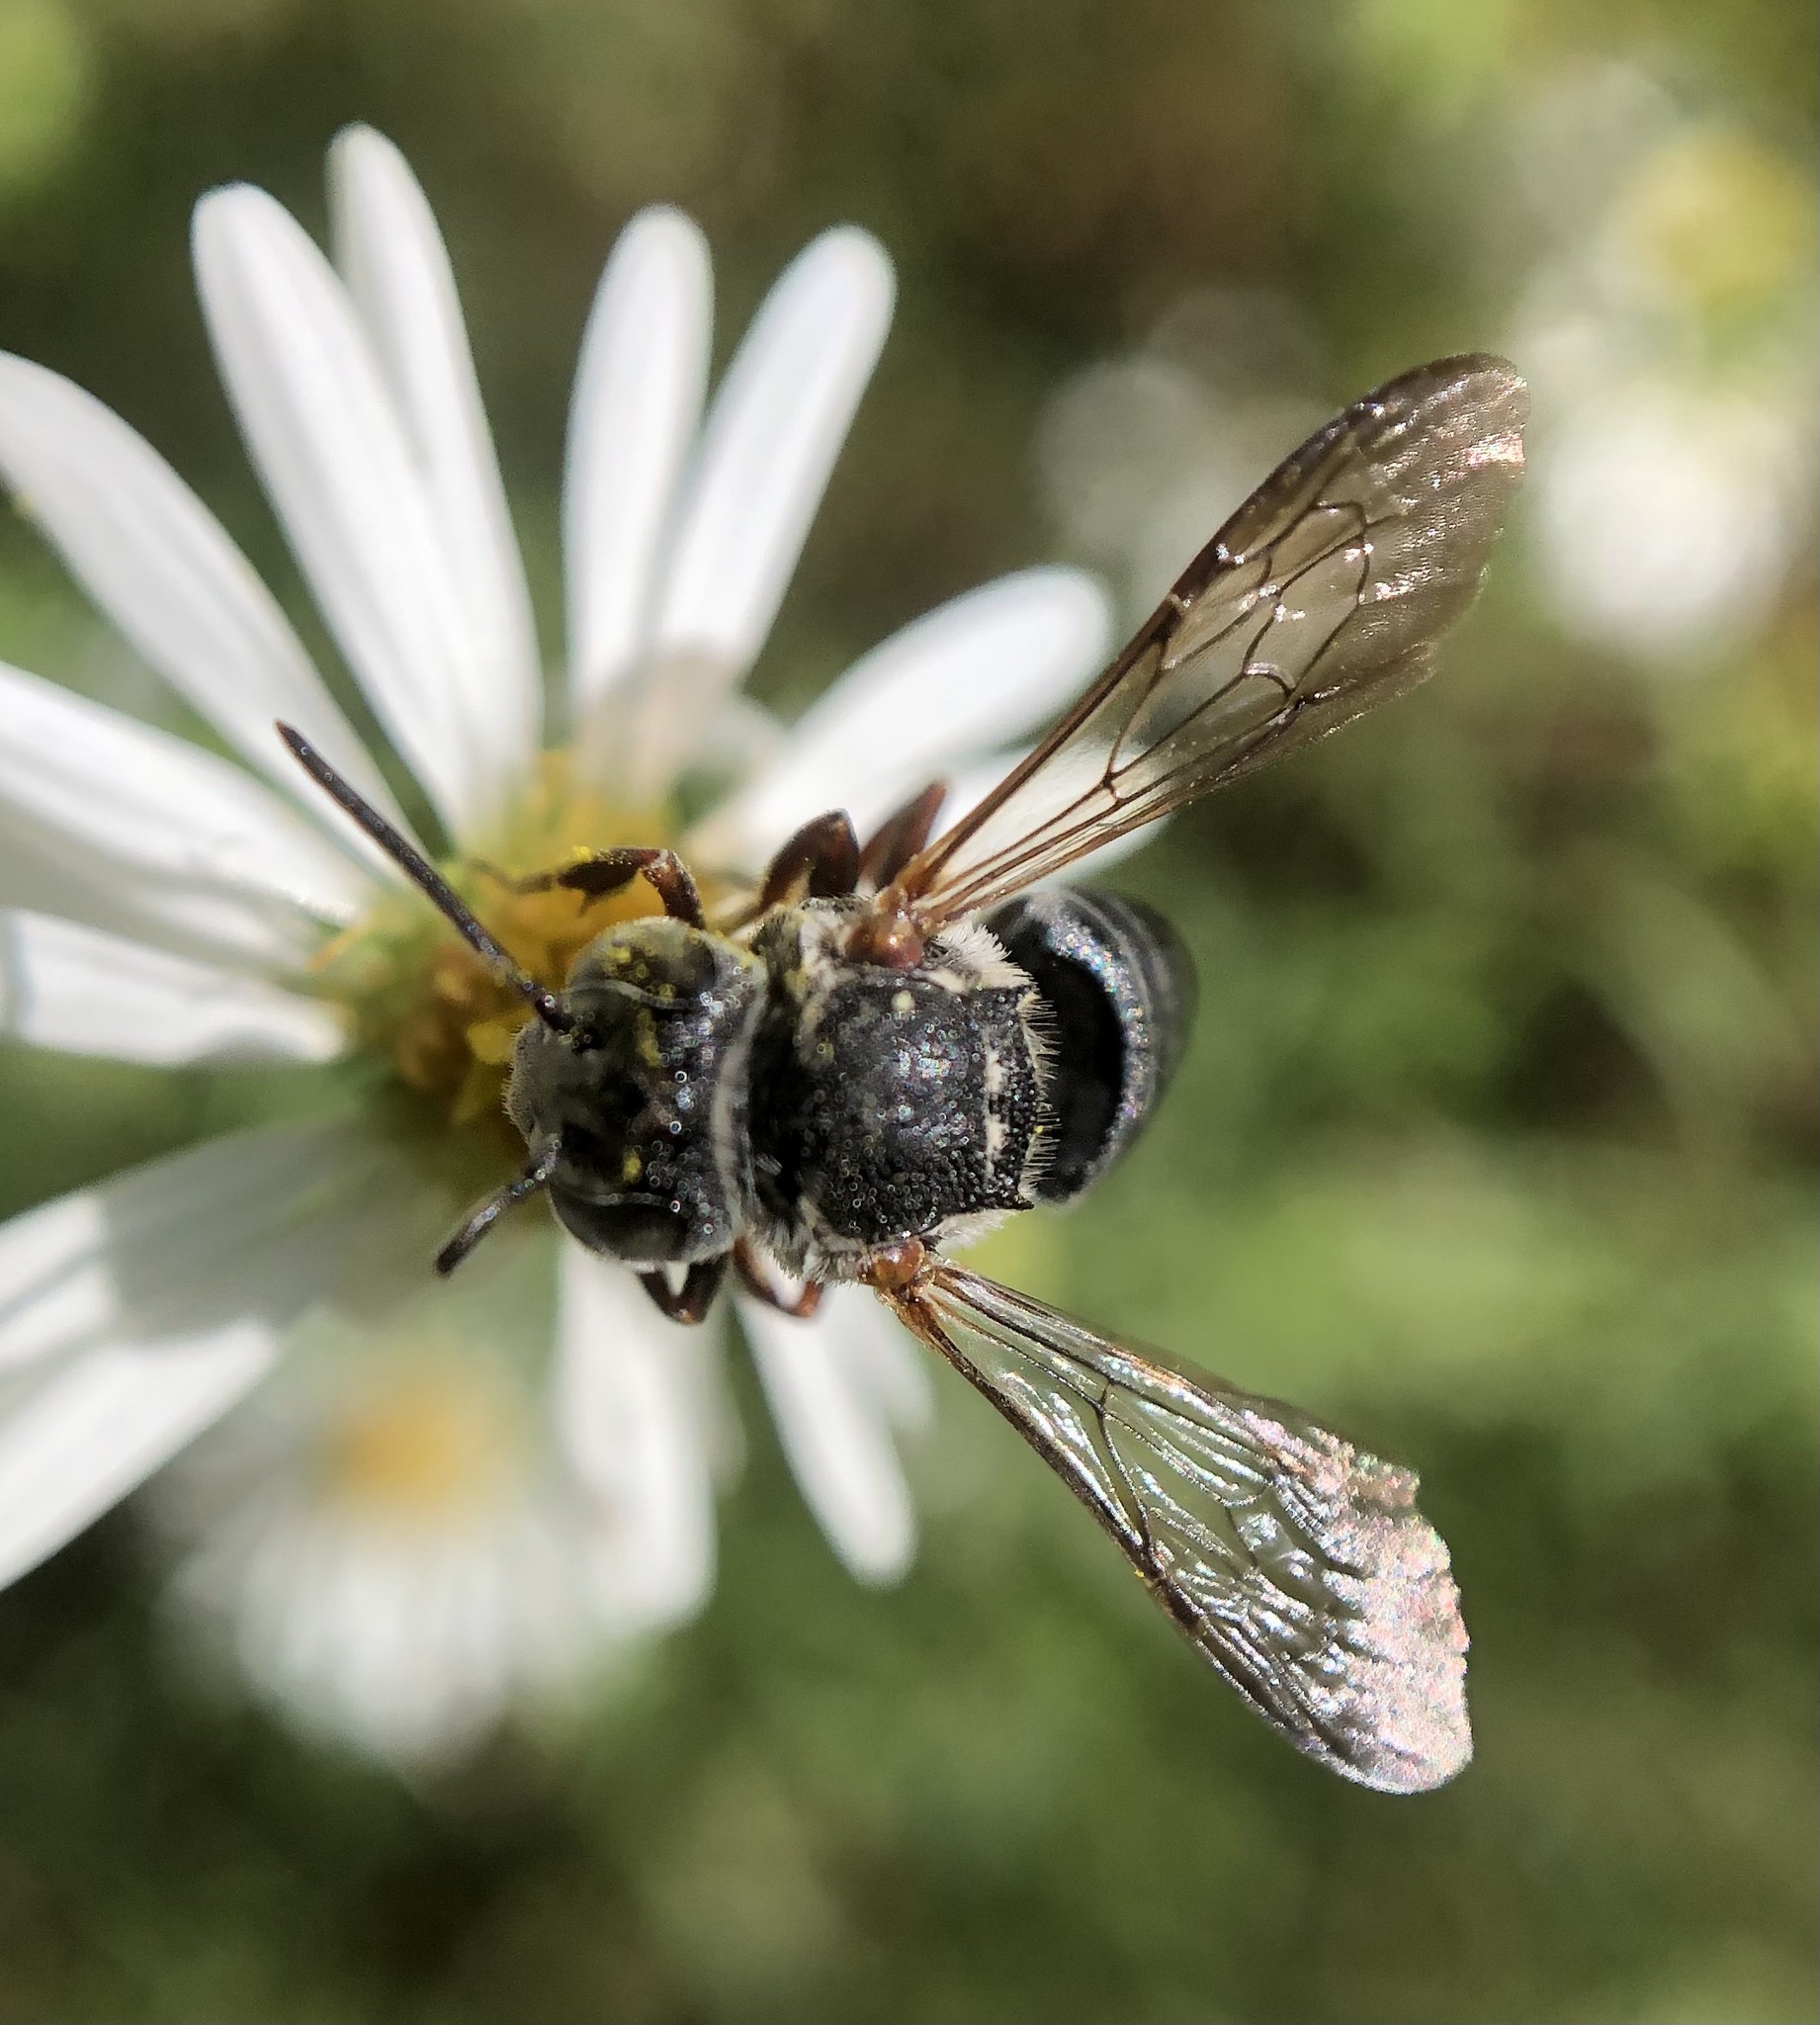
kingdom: Animalia
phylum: Arthropoda
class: Insecta
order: Hymenoptera
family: Megachilidae
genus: Coelioxys
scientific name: Coelioxys sayi
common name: Say's cuckoo leaf-cutter bee
